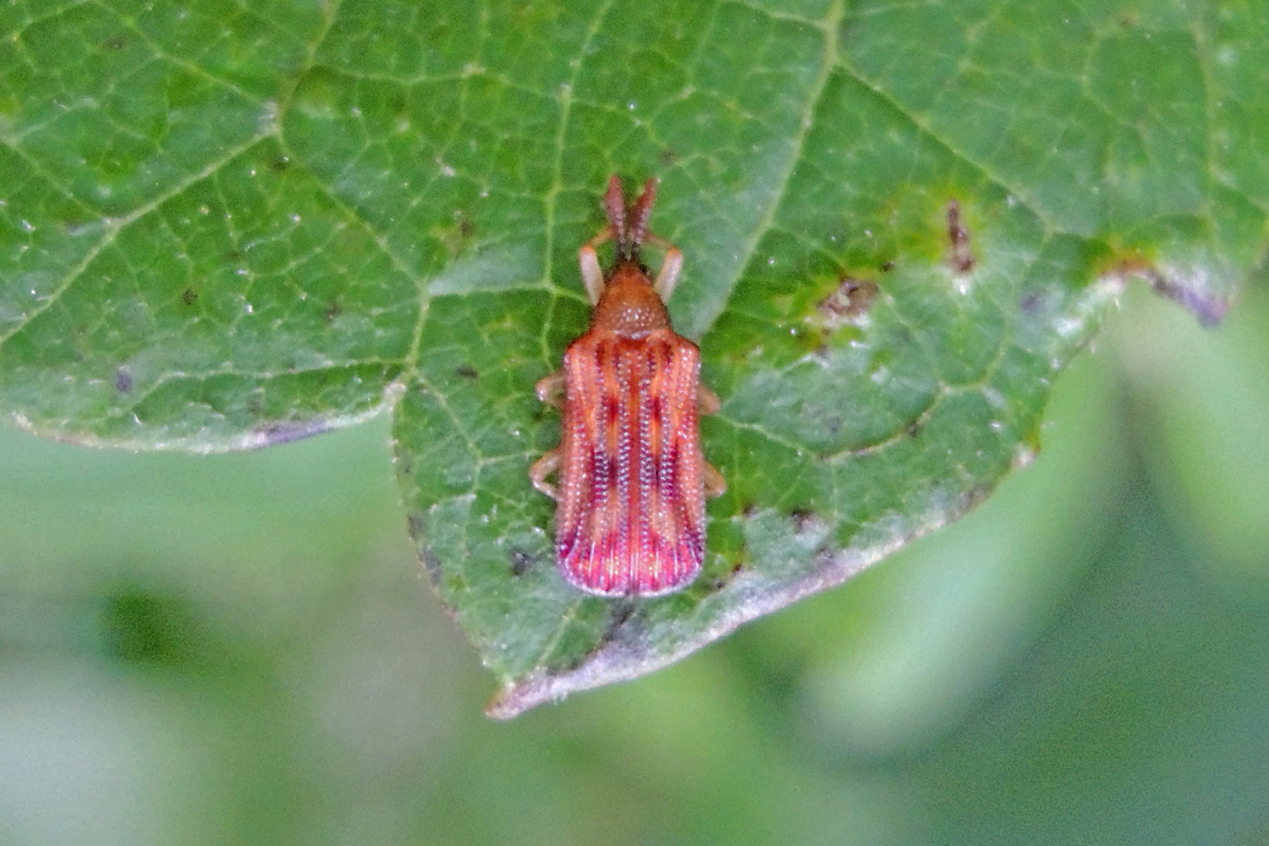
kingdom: Animalia
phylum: Arthropoda
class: Insecta
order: Coleoptera
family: Chrysomelidae
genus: Baliosus
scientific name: Baliosus nervosus
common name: Basswood leaf miner
